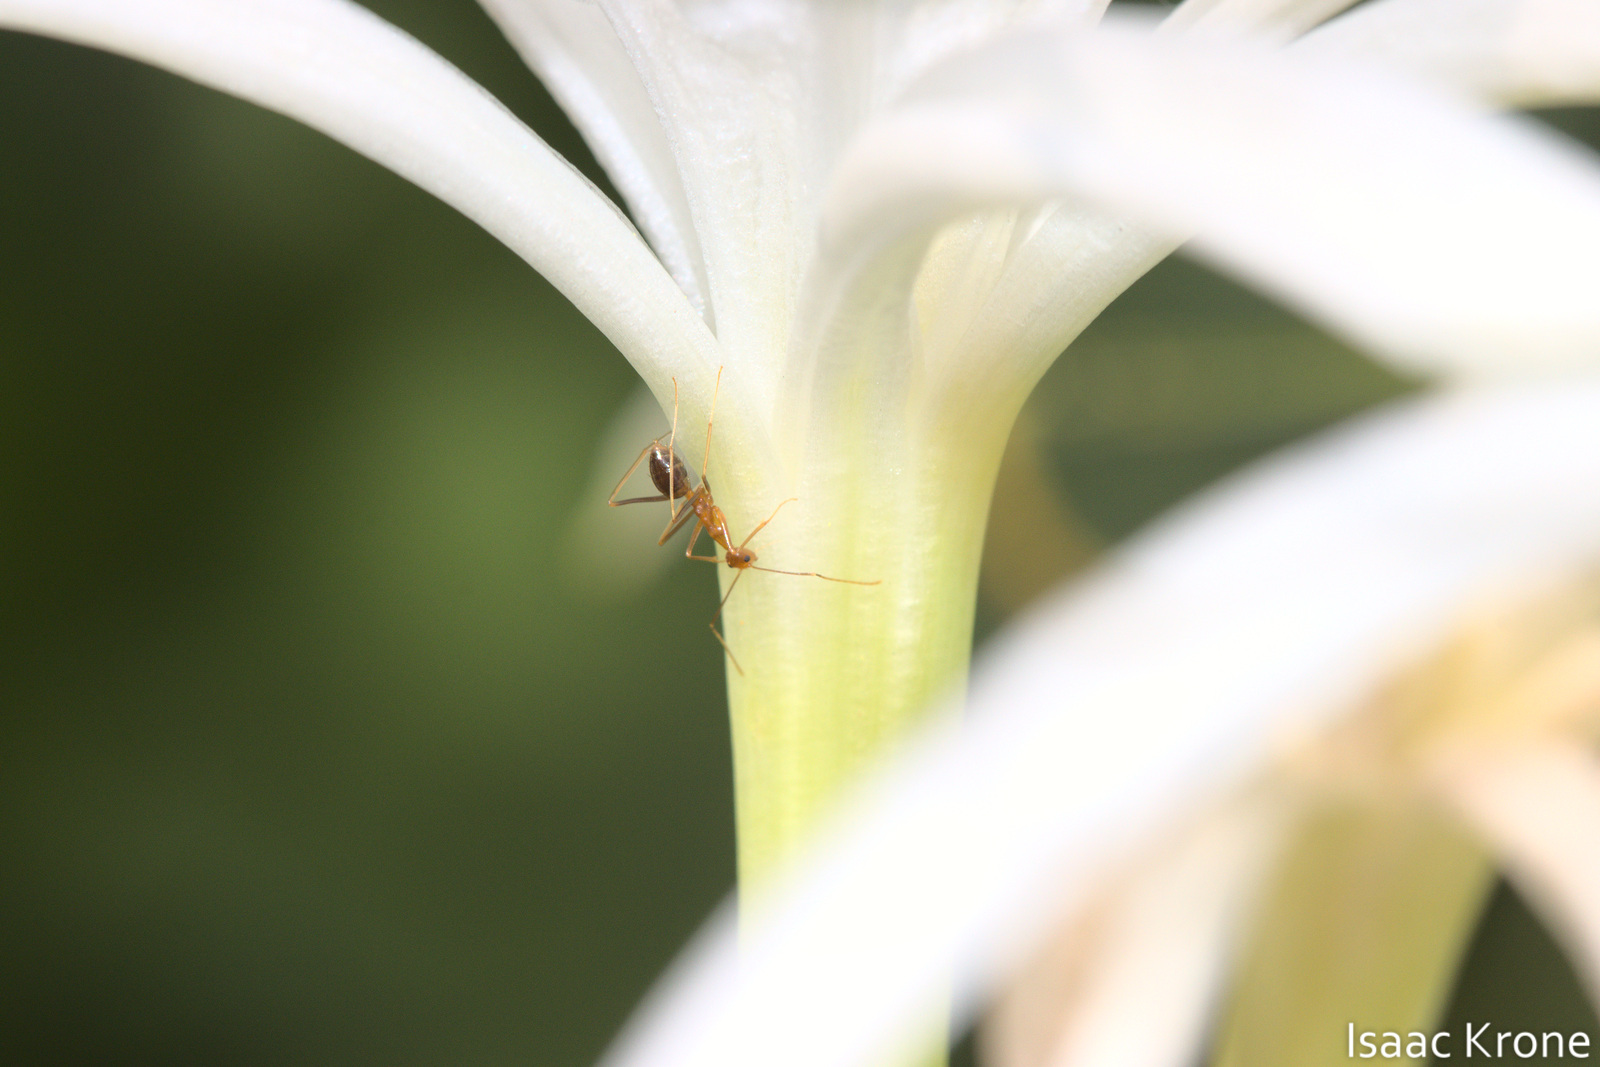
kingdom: Animalia
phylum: Arthropoda
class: Insecta
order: Hymenoptera
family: Formicidae
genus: Anoplolepis
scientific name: Anoplolepis gracilipes
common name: Ant
